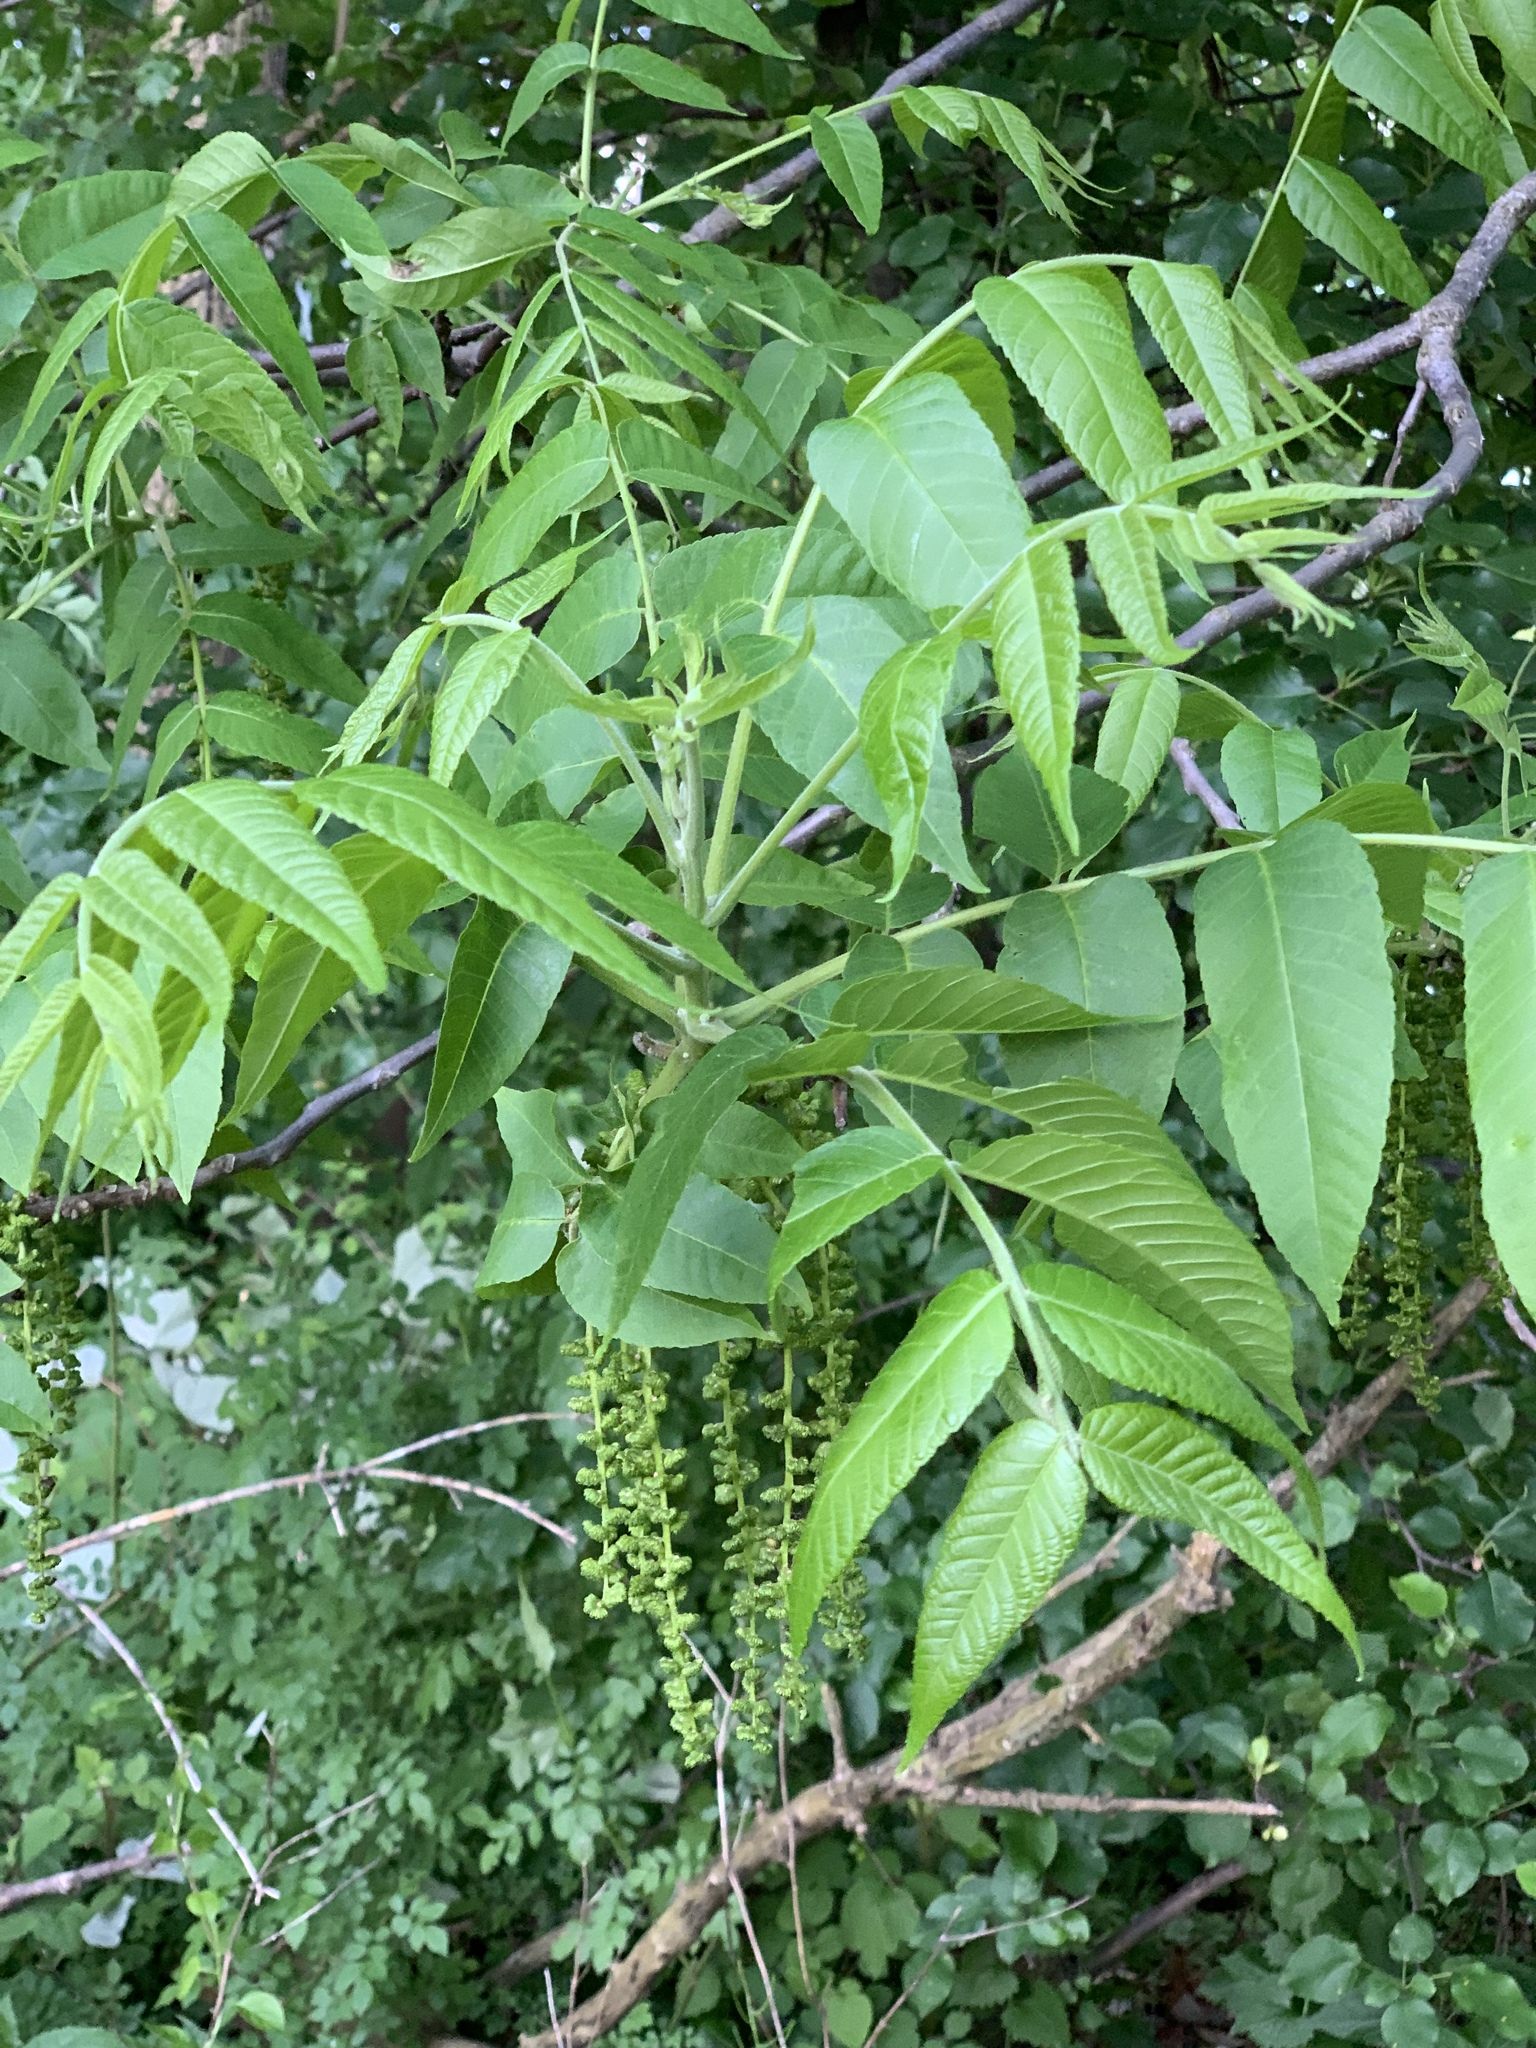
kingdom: Plantae
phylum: Tracheophyta
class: Magnoliopsida
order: Fagales
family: Juglandaceae
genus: Juglans
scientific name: Juglans nigra
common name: Black walnut
